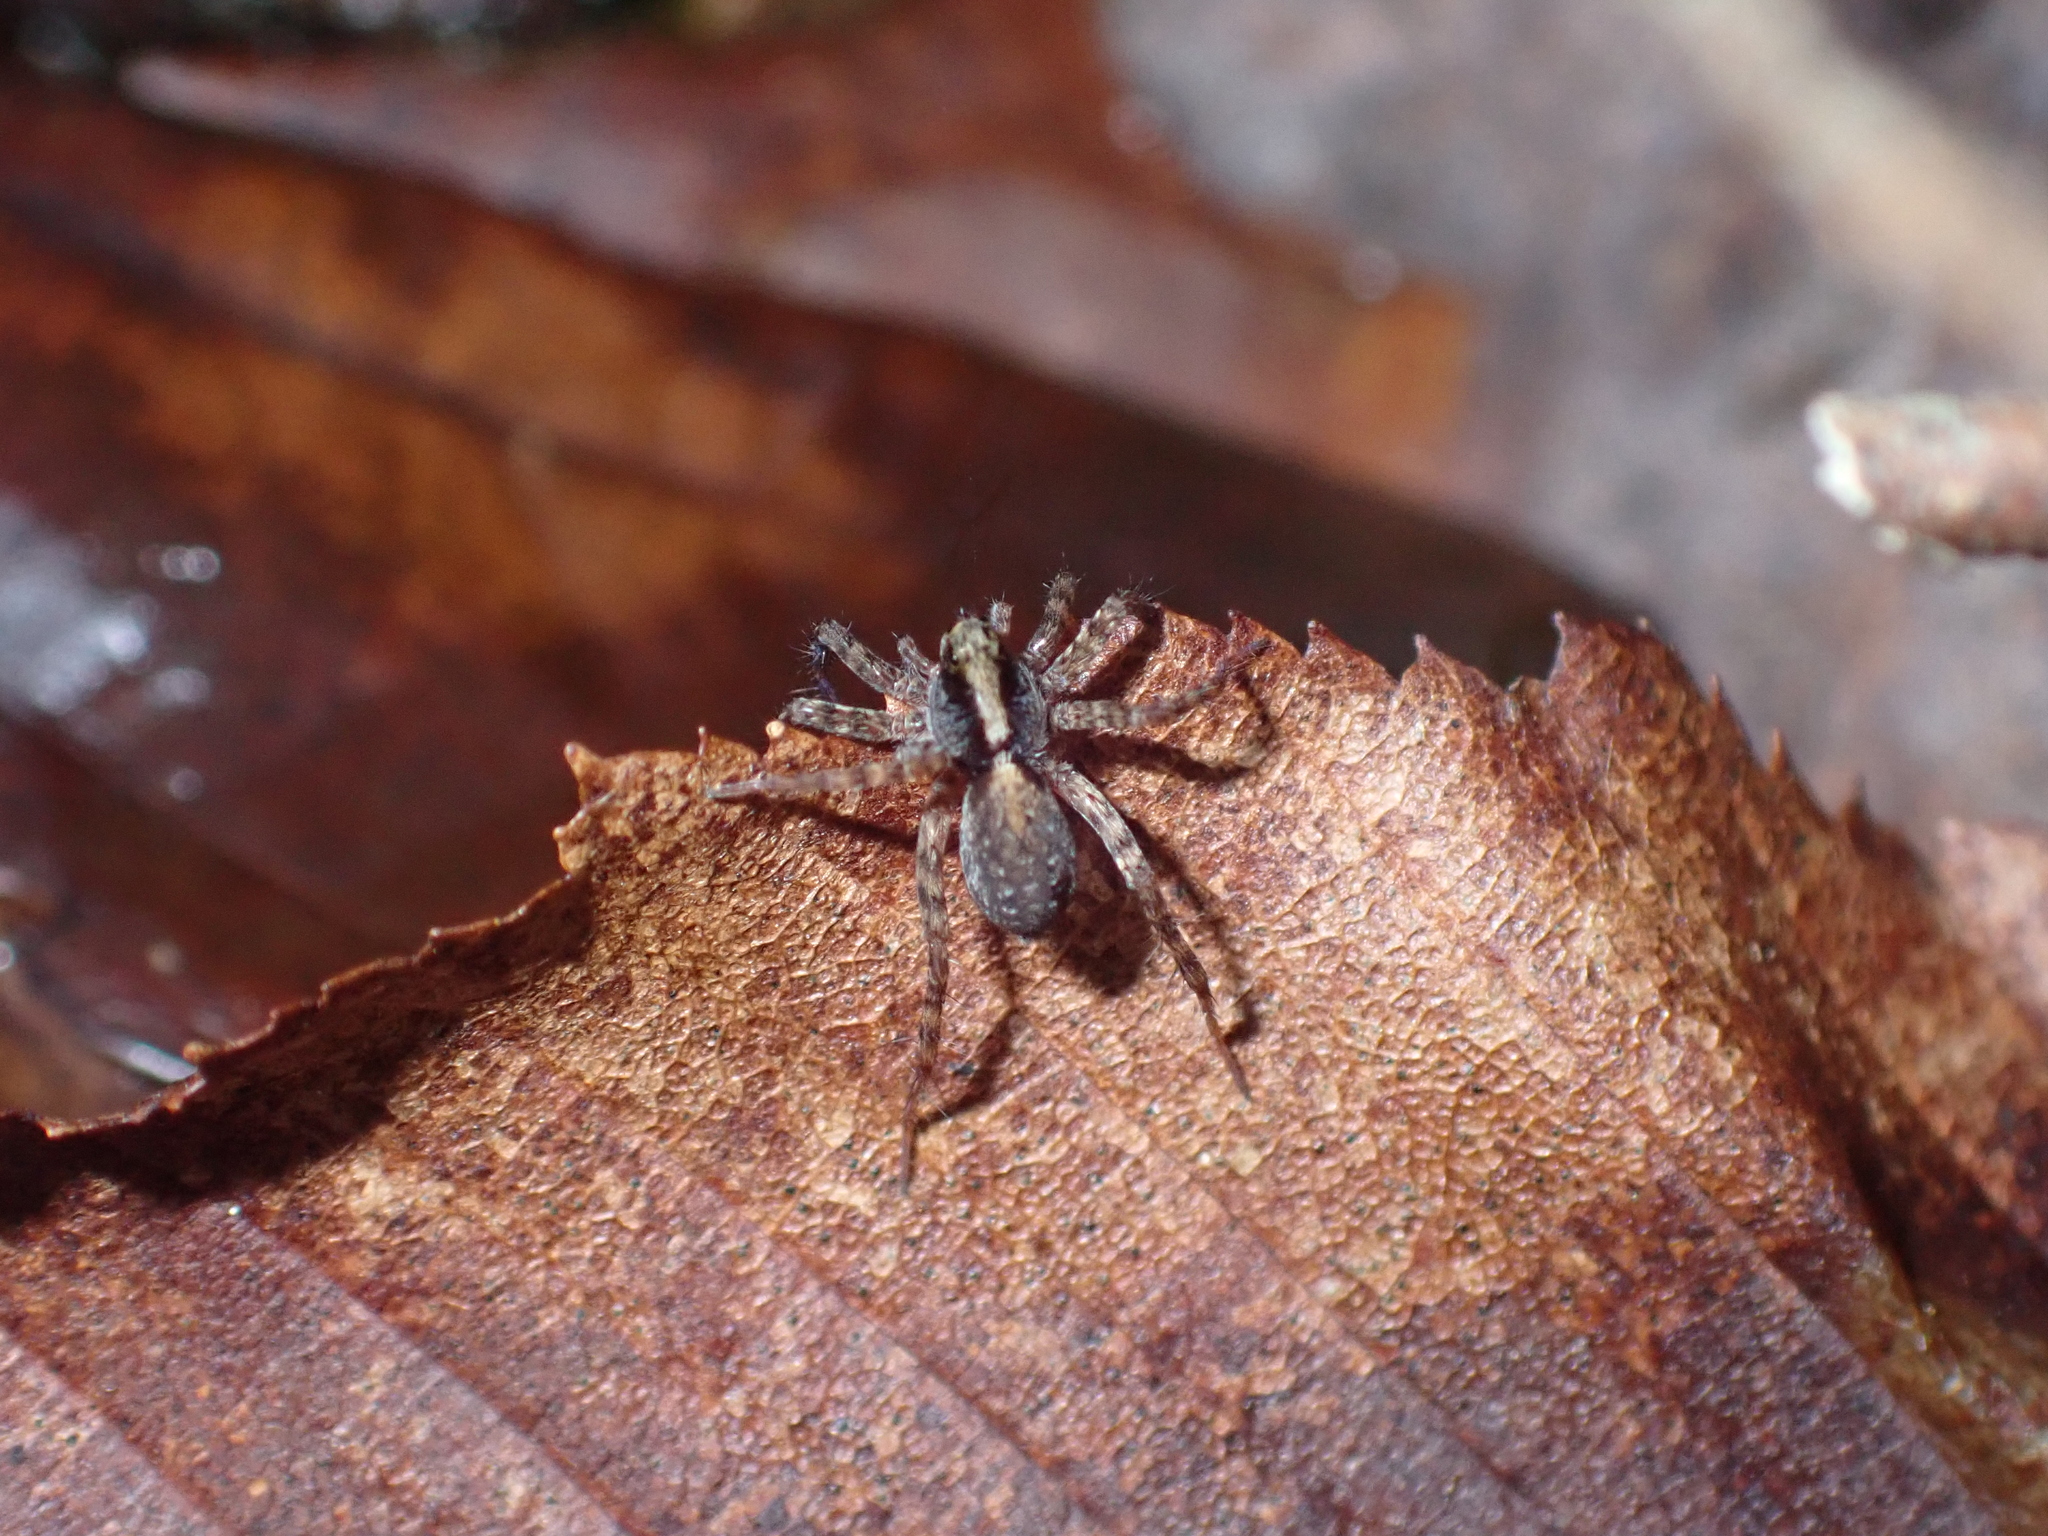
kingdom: Animalia
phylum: Arthropoda
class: Arachnida
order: Araneae
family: Lycosidae
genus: Pardosa
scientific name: Pardosa
